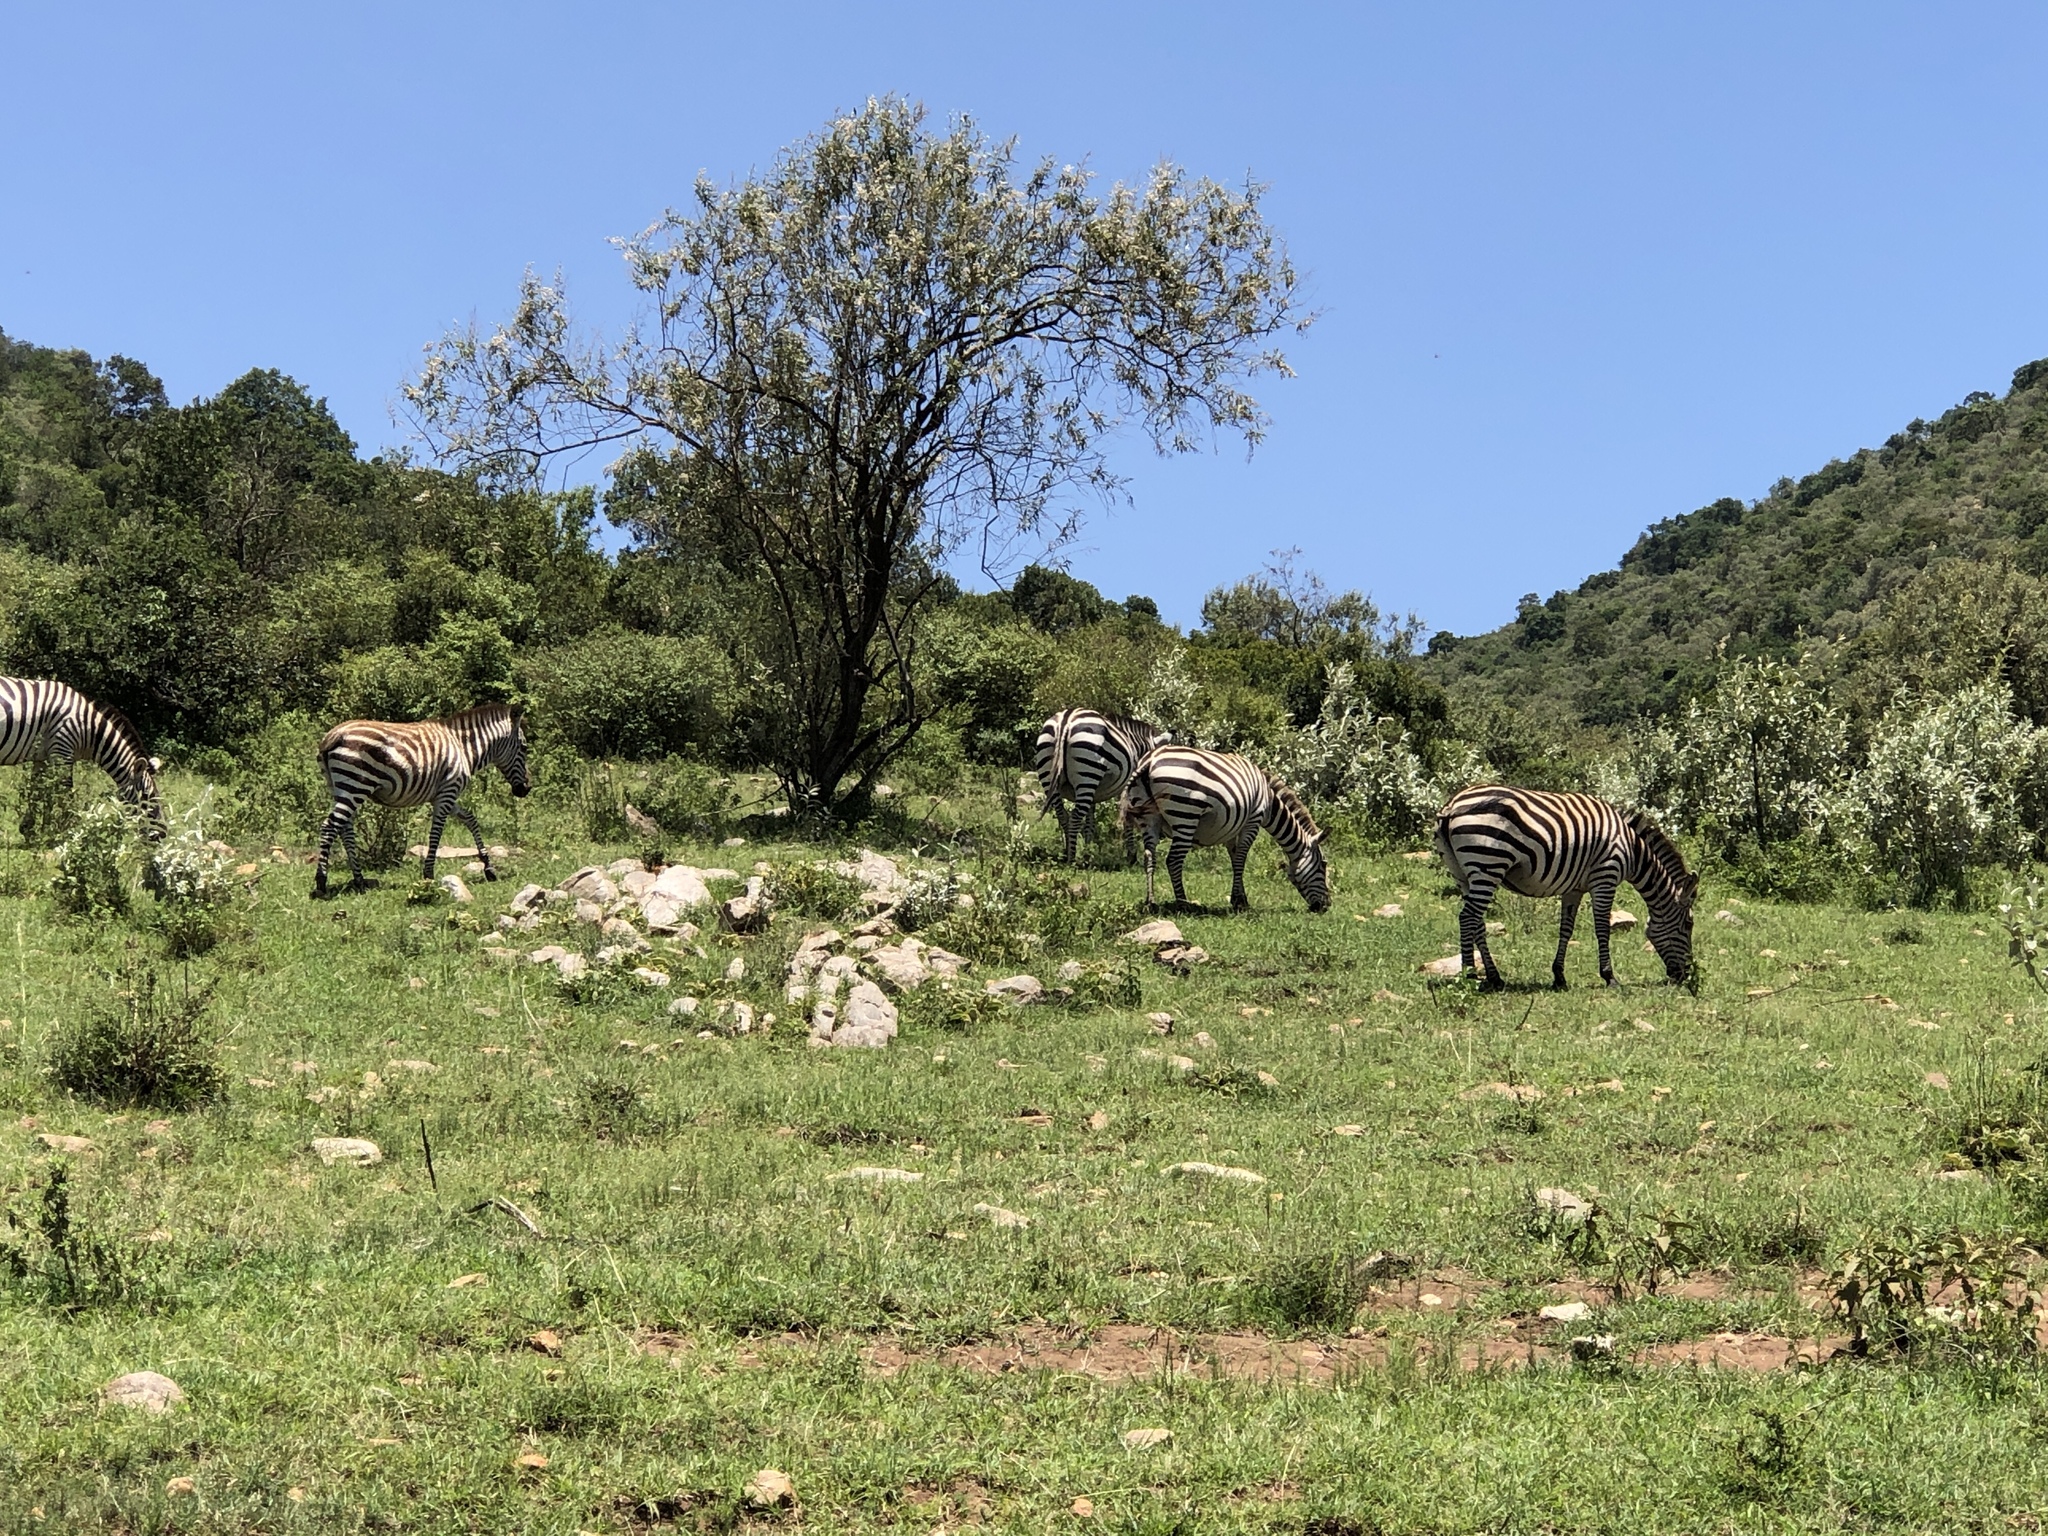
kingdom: Animalia
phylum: Chordata
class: Mammalia
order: Perissodactyla
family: Equidae
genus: Equus
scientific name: Equus quagga
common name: Plains zebra
